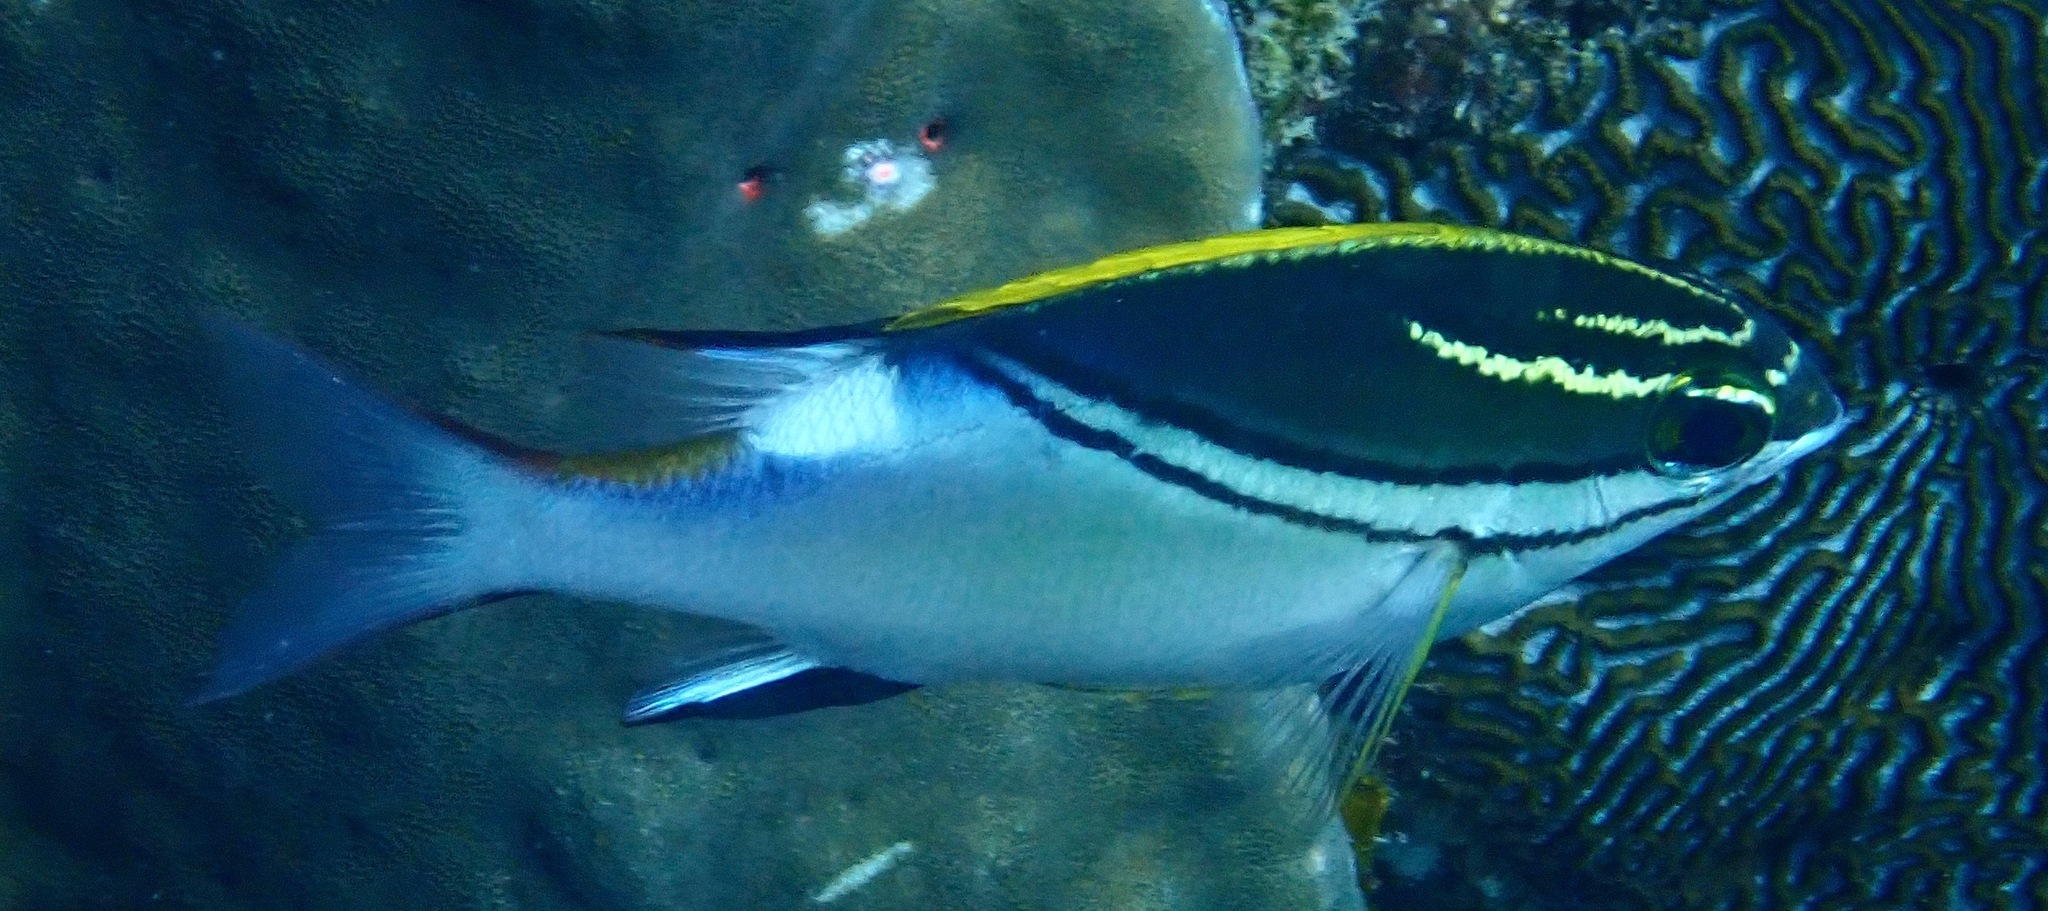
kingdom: Animalia
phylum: Chordata
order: Perciformes
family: Nemipteridae
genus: Scolopsis
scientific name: Scolopsis bilineata
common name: Two-lined monocle bream
